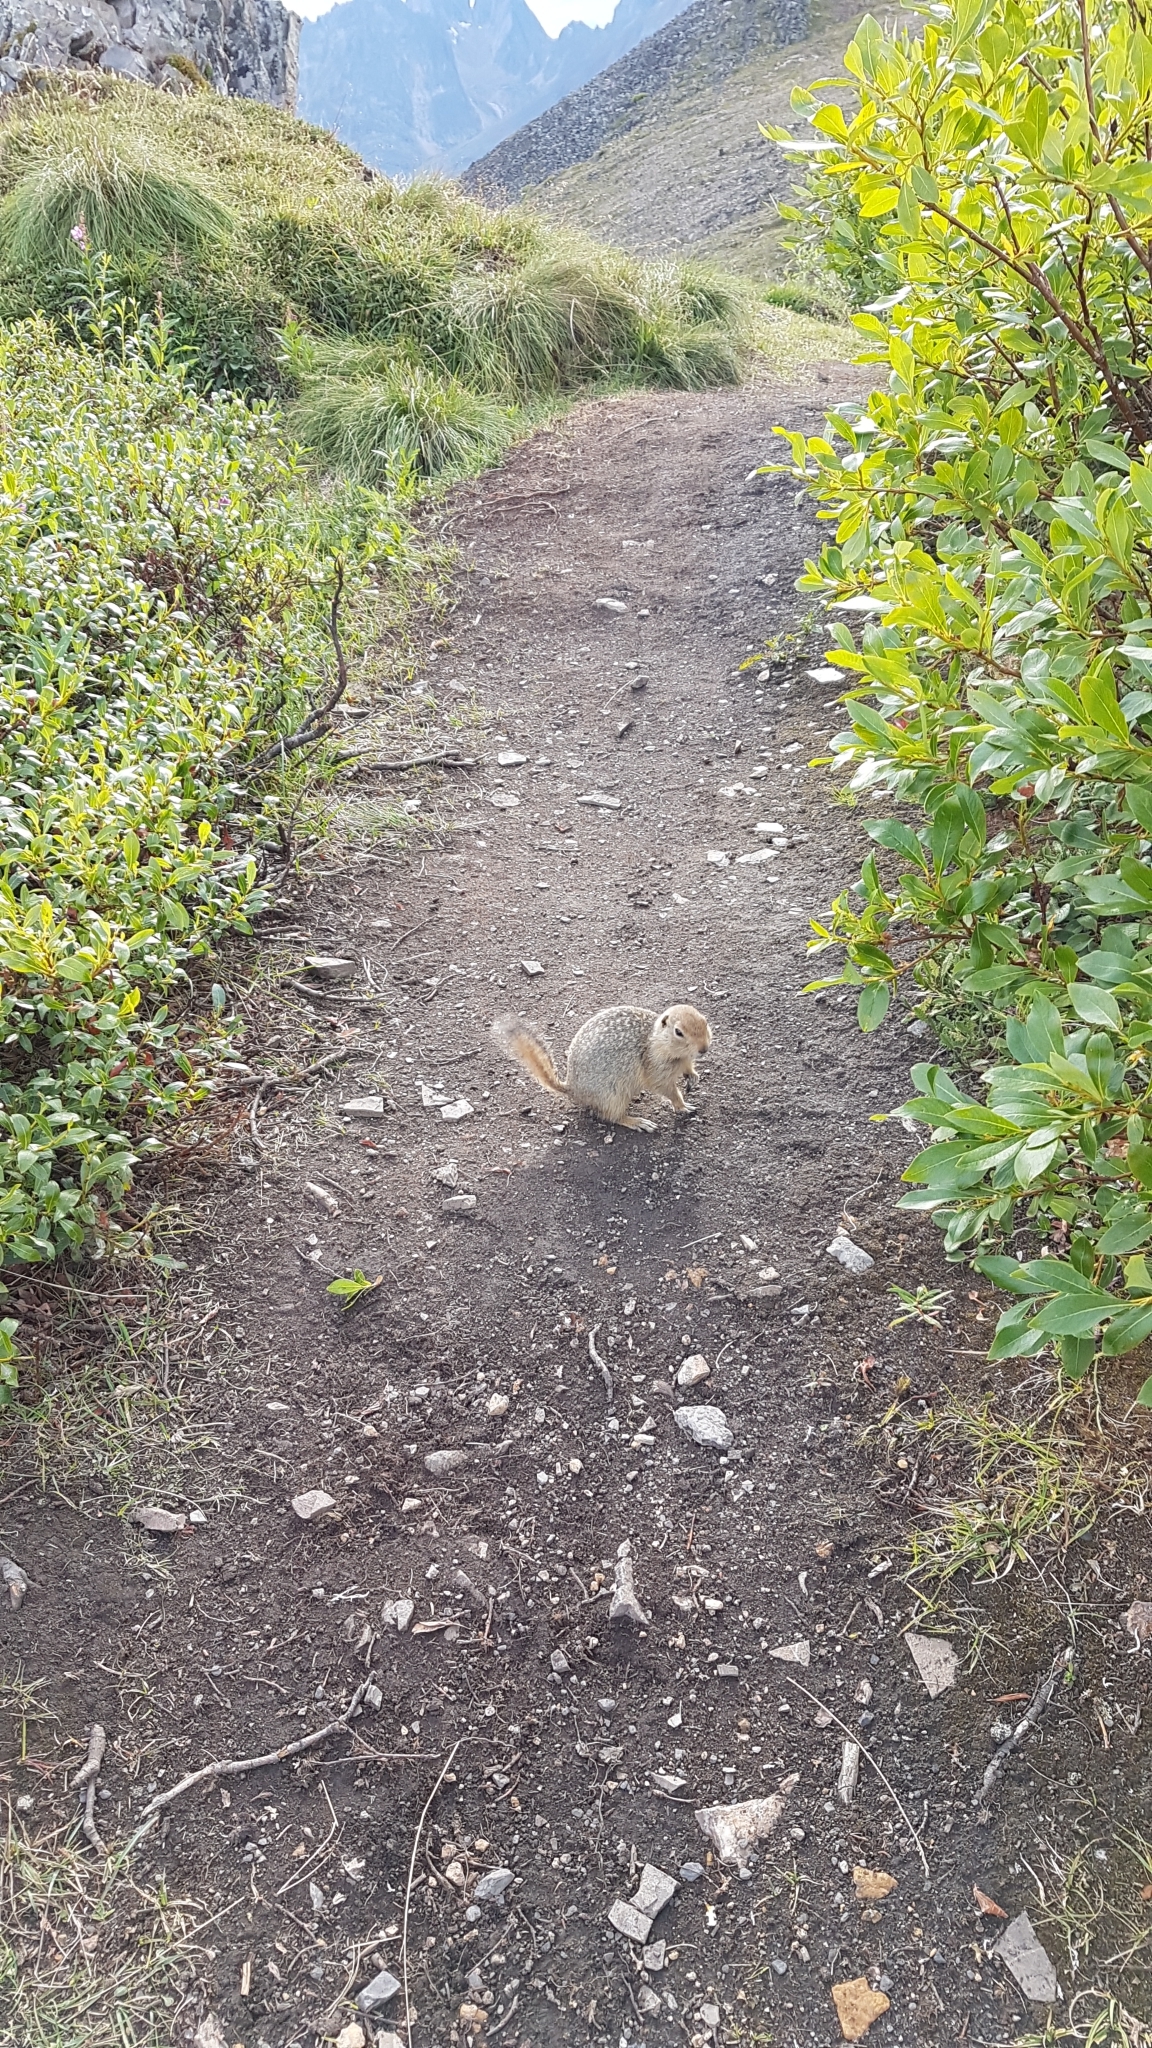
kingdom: Animalia
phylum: Chordata
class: Mammalia
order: Rodentia
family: Sciuridae
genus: Urocitellus
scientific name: Urocitellus parryii
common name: Arctic ground squirrel
